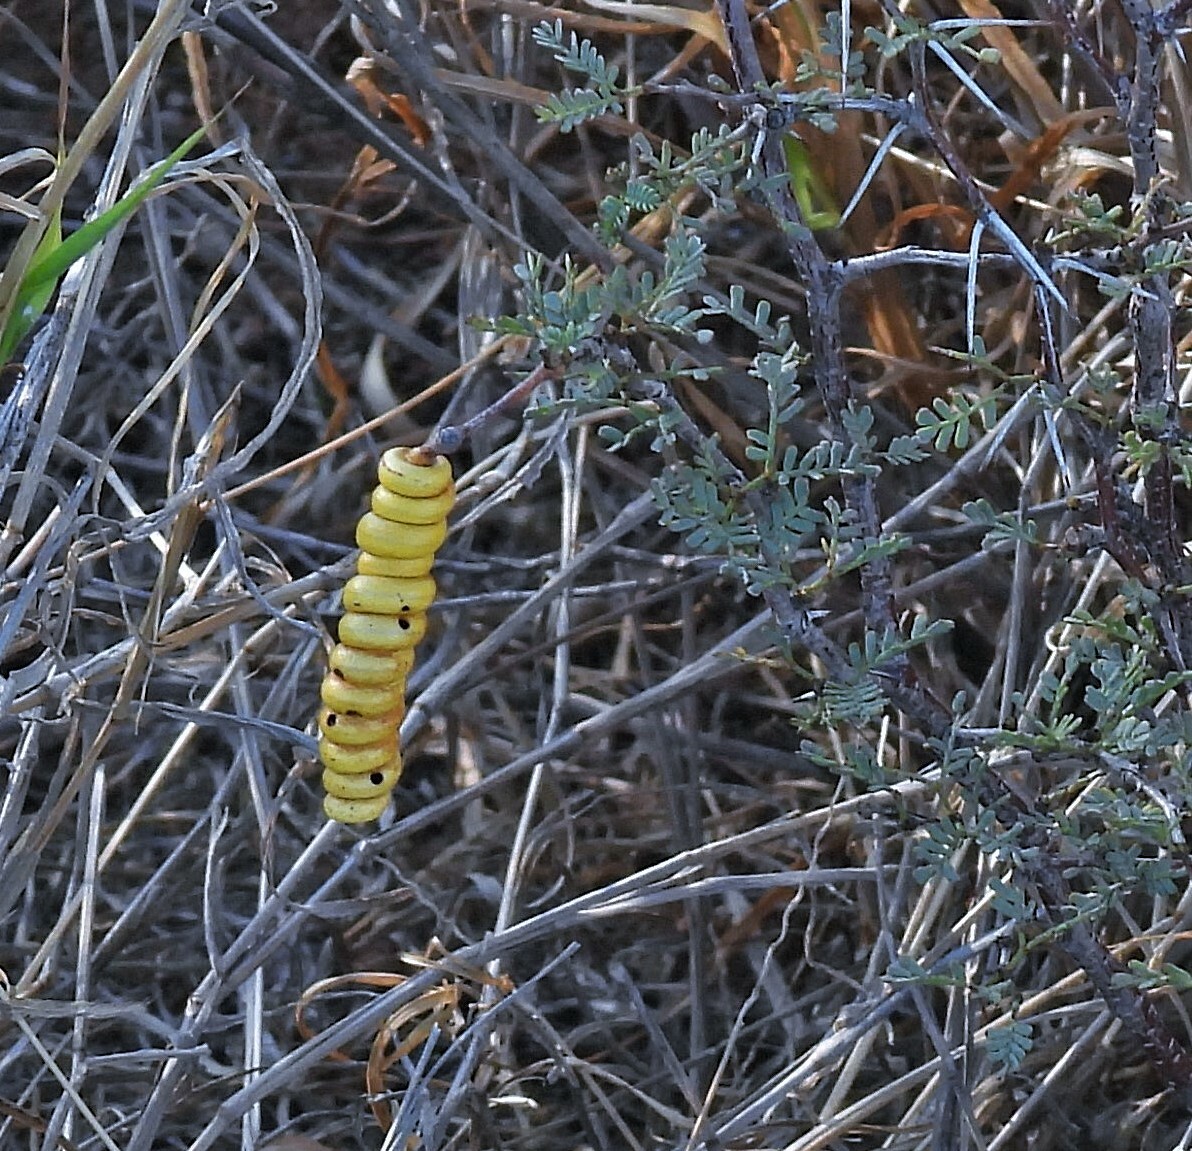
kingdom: Plantae
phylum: Tracheophyta
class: Magnoliopsida
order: Fabales
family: Fabaceae
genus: Prosopis
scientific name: Prosopis strombulifera
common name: Creeping mesquite
